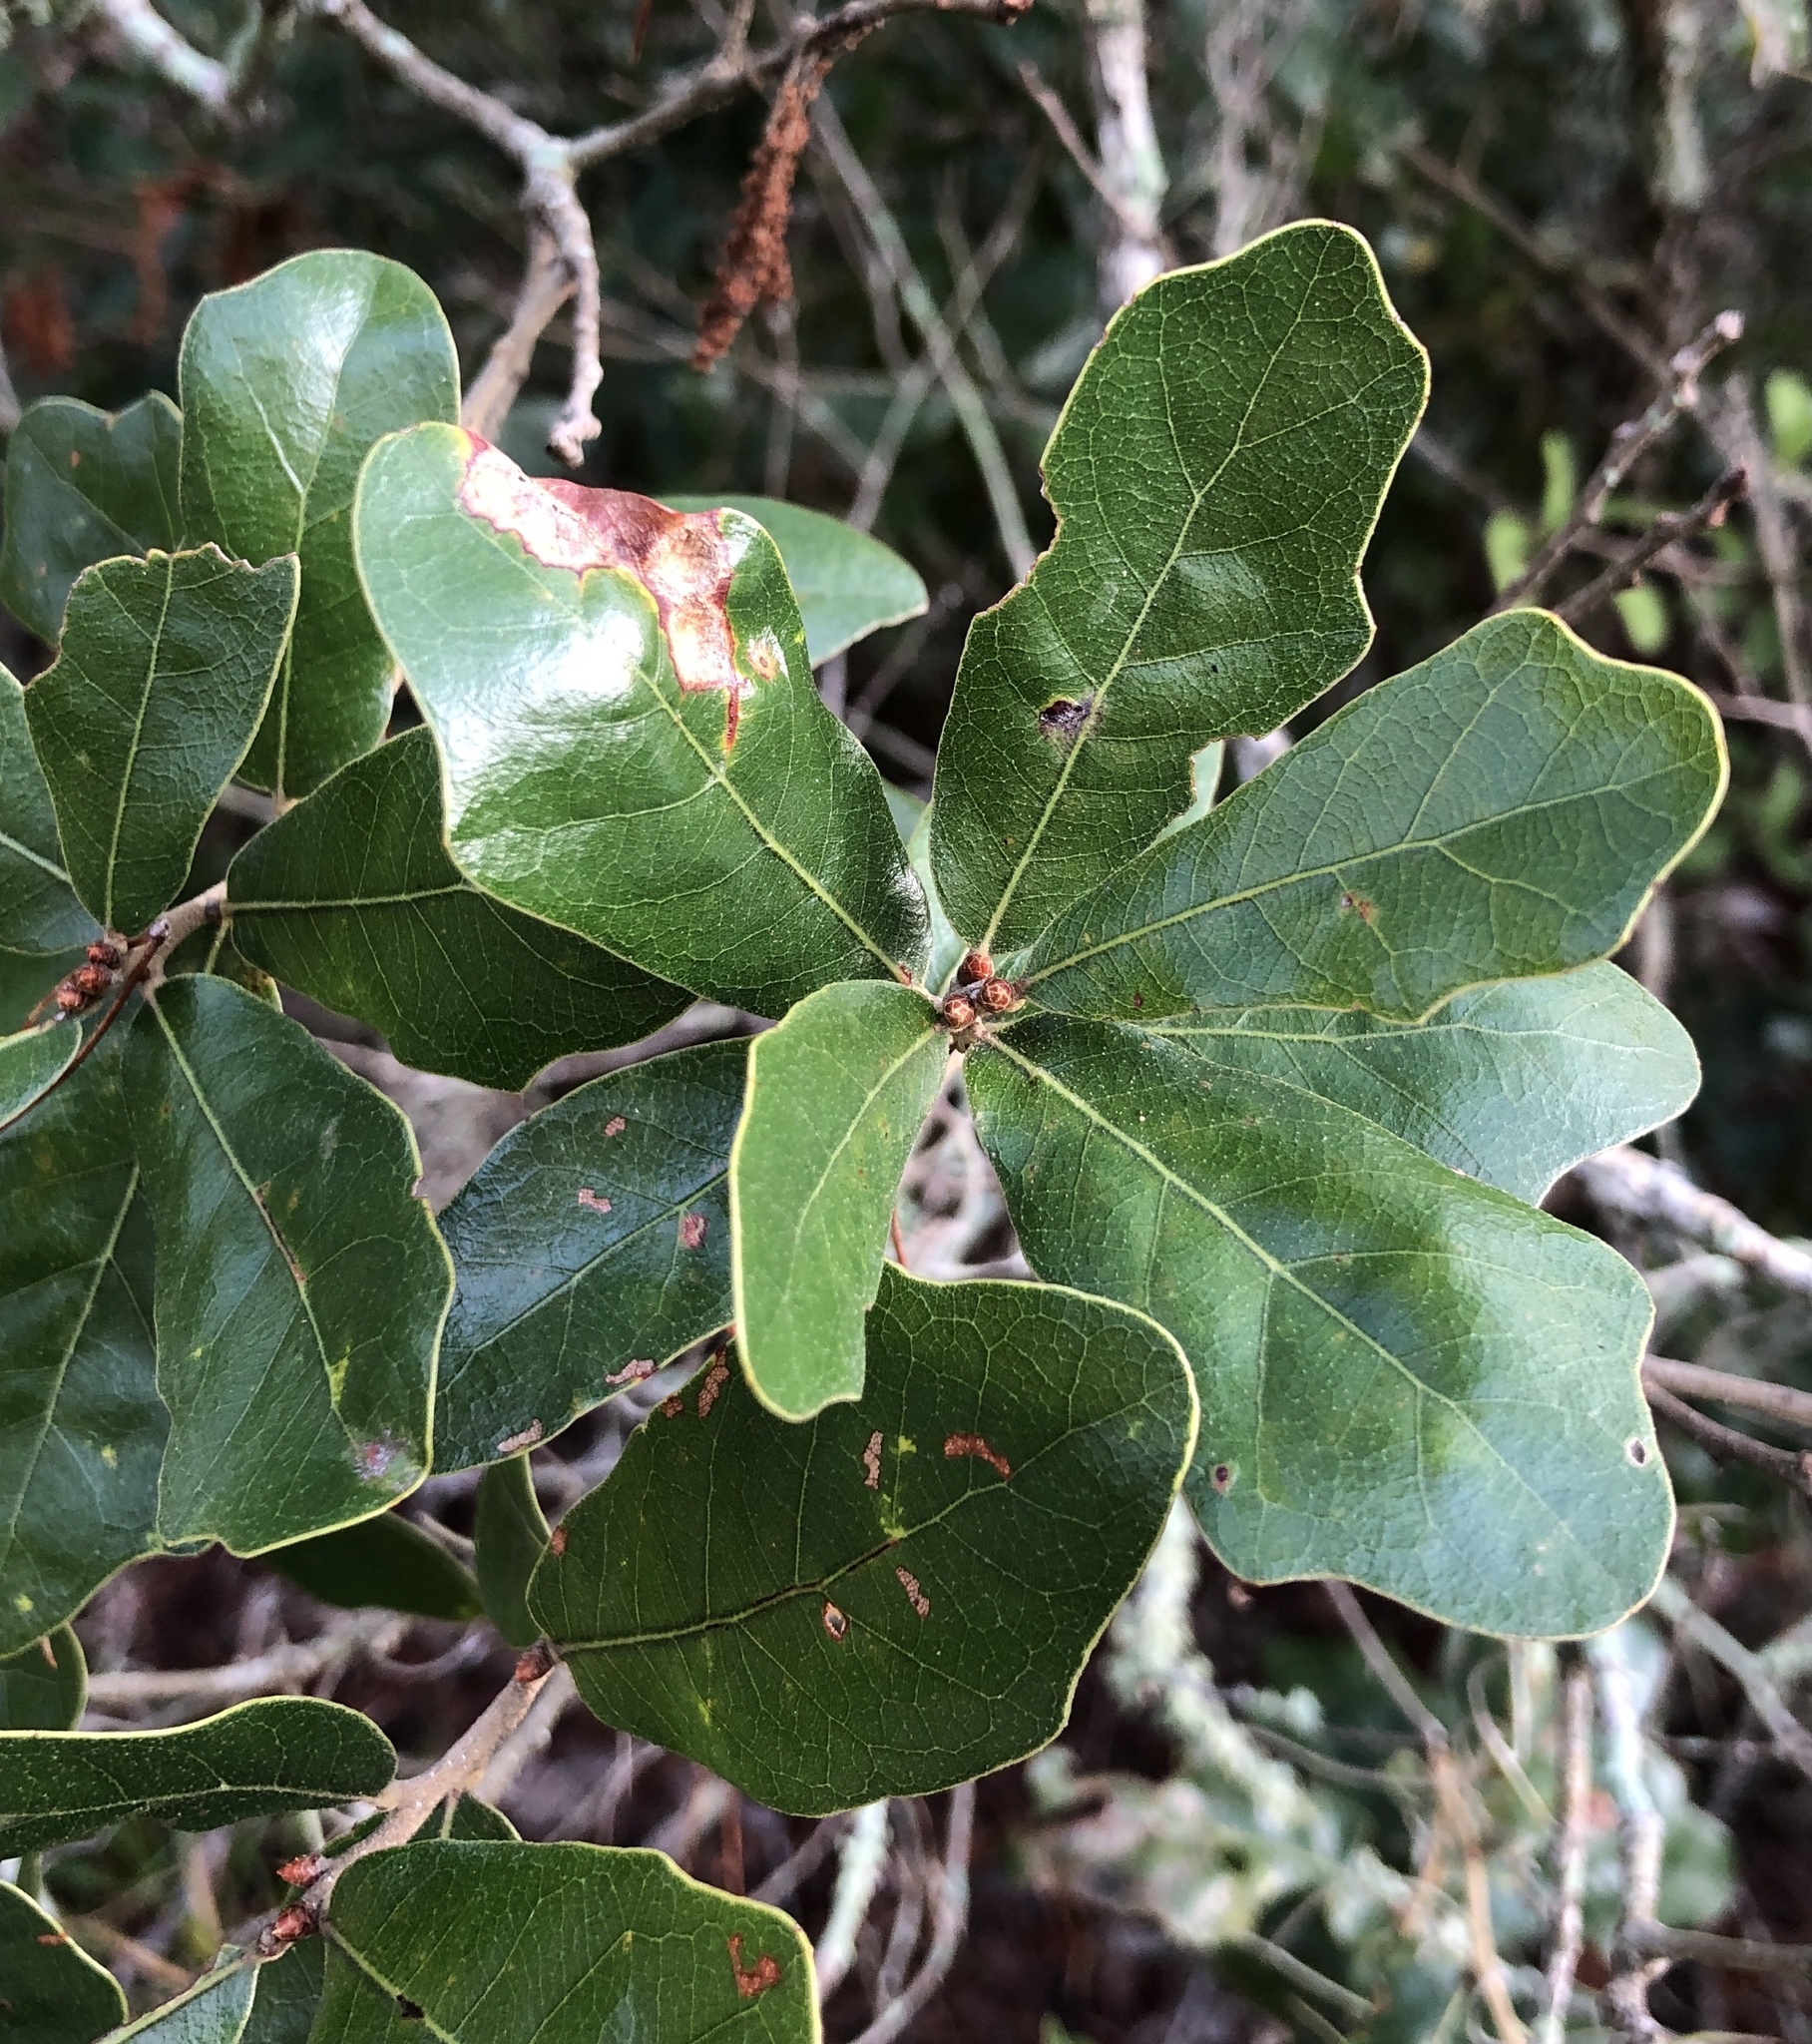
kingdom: Plantae
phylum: Tracheophyta
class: Magnoliopsida
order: Fagales
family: Fagaceae
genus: Quercus
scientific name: Quercus chapmanii
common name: Chapman oak
